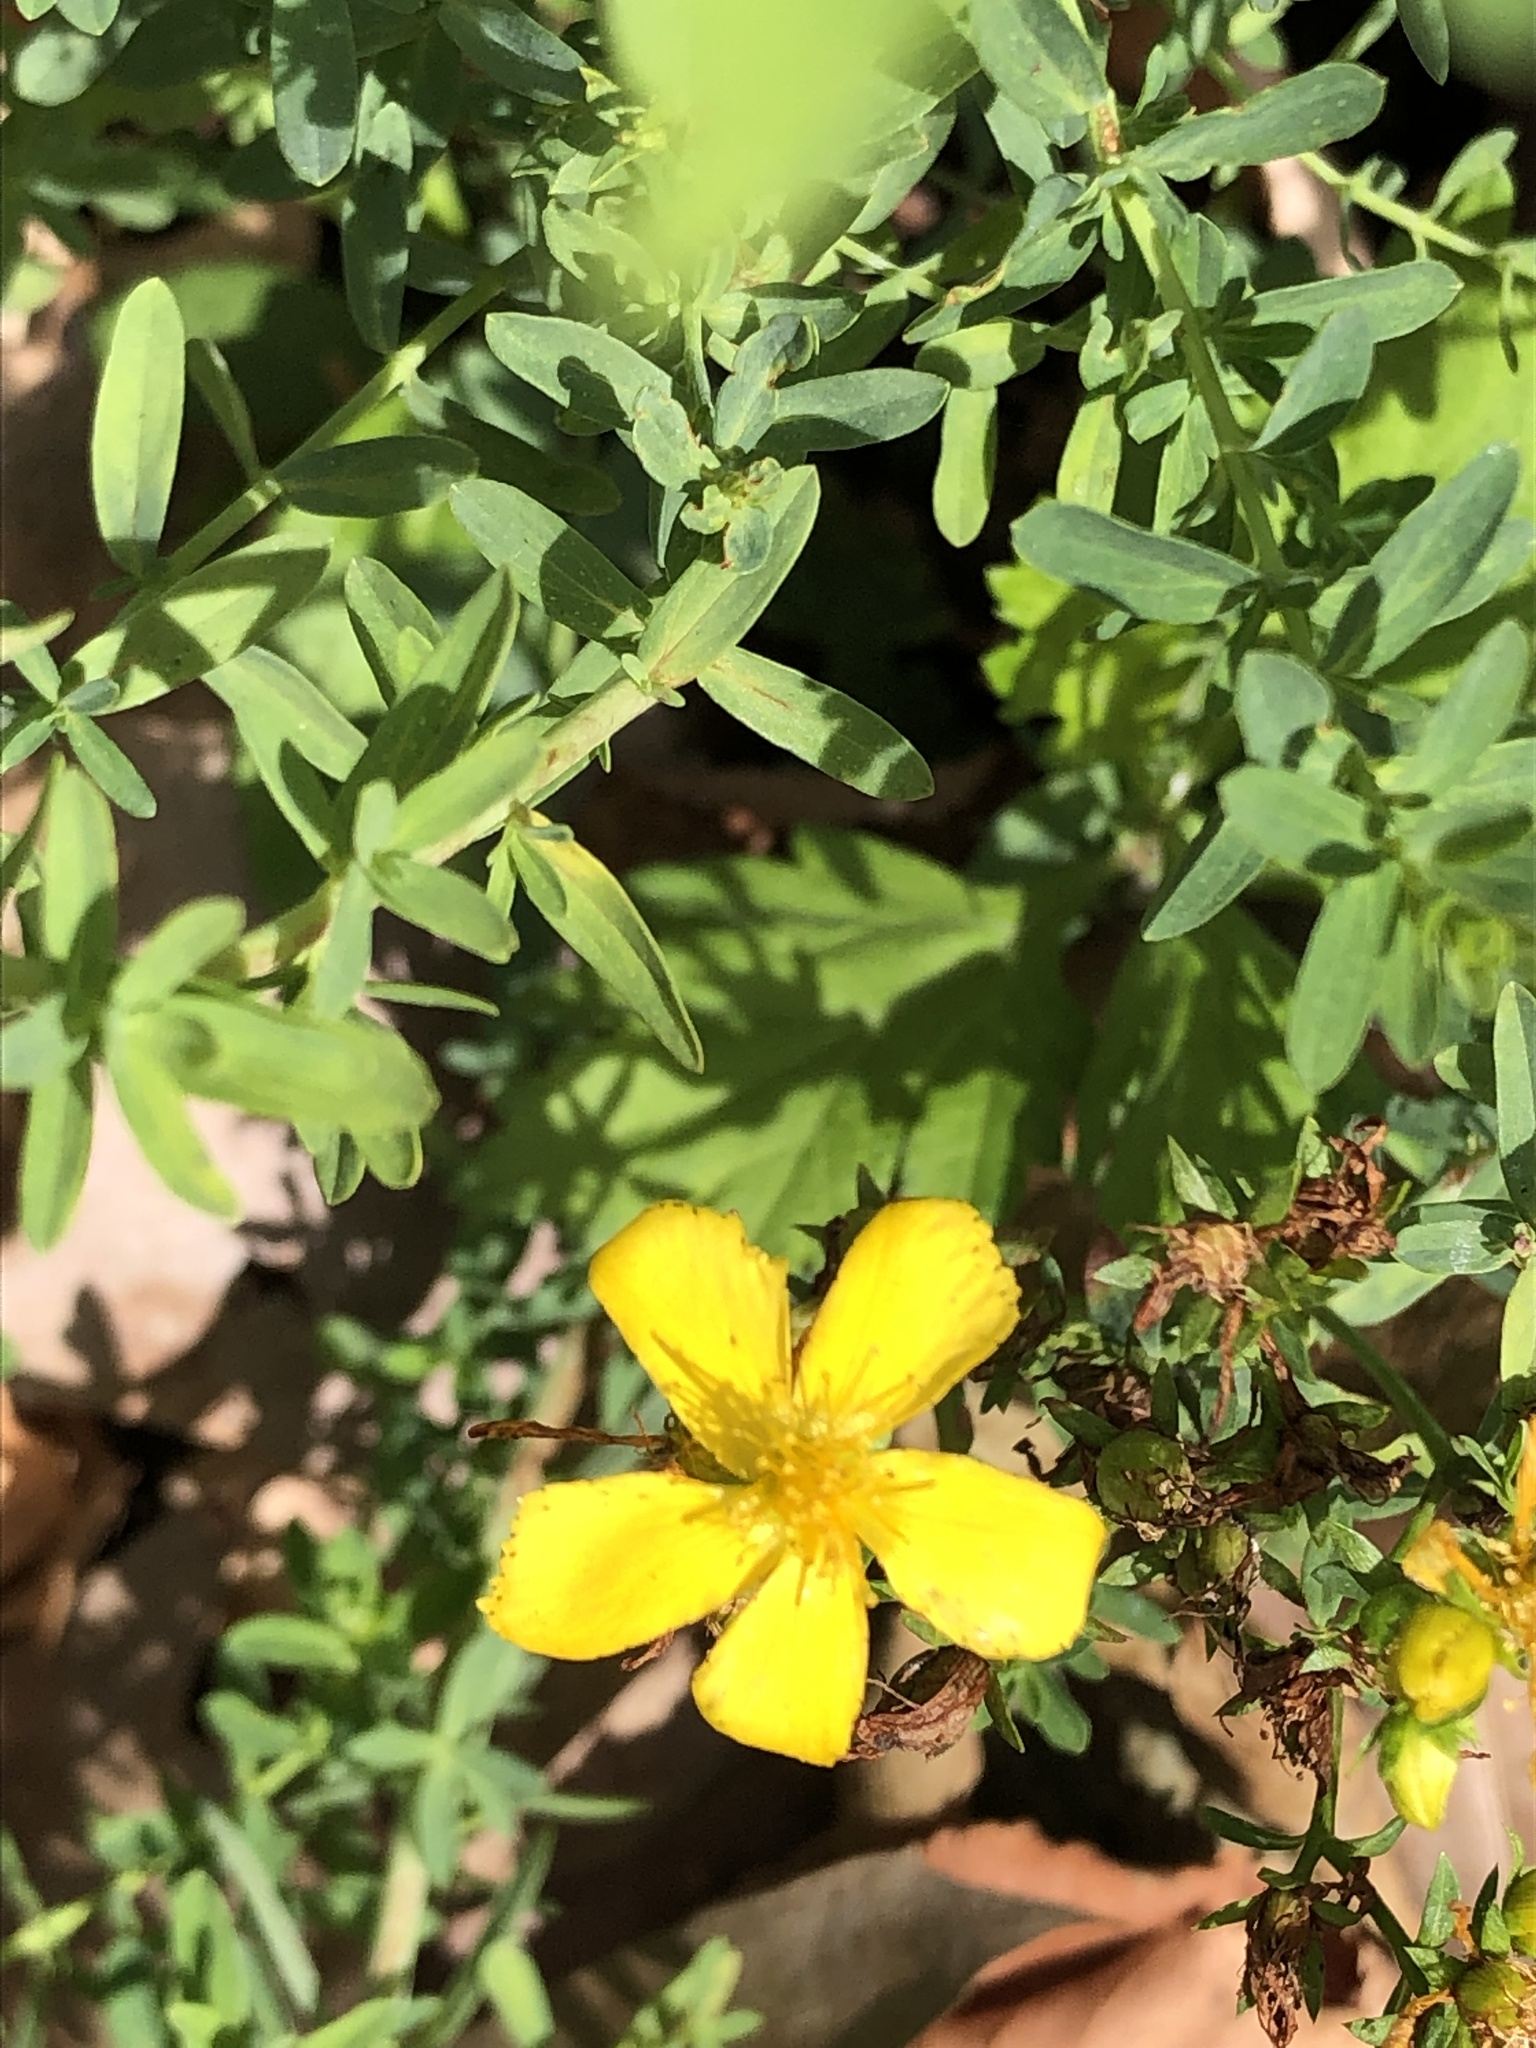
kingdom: Plantae
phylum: Tracheophyta
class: Magnoliopsida
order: Malpighiales
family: Hypericaceae
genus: Hypericum
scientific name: Hypericum perforatum
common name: Common st. johnswort
